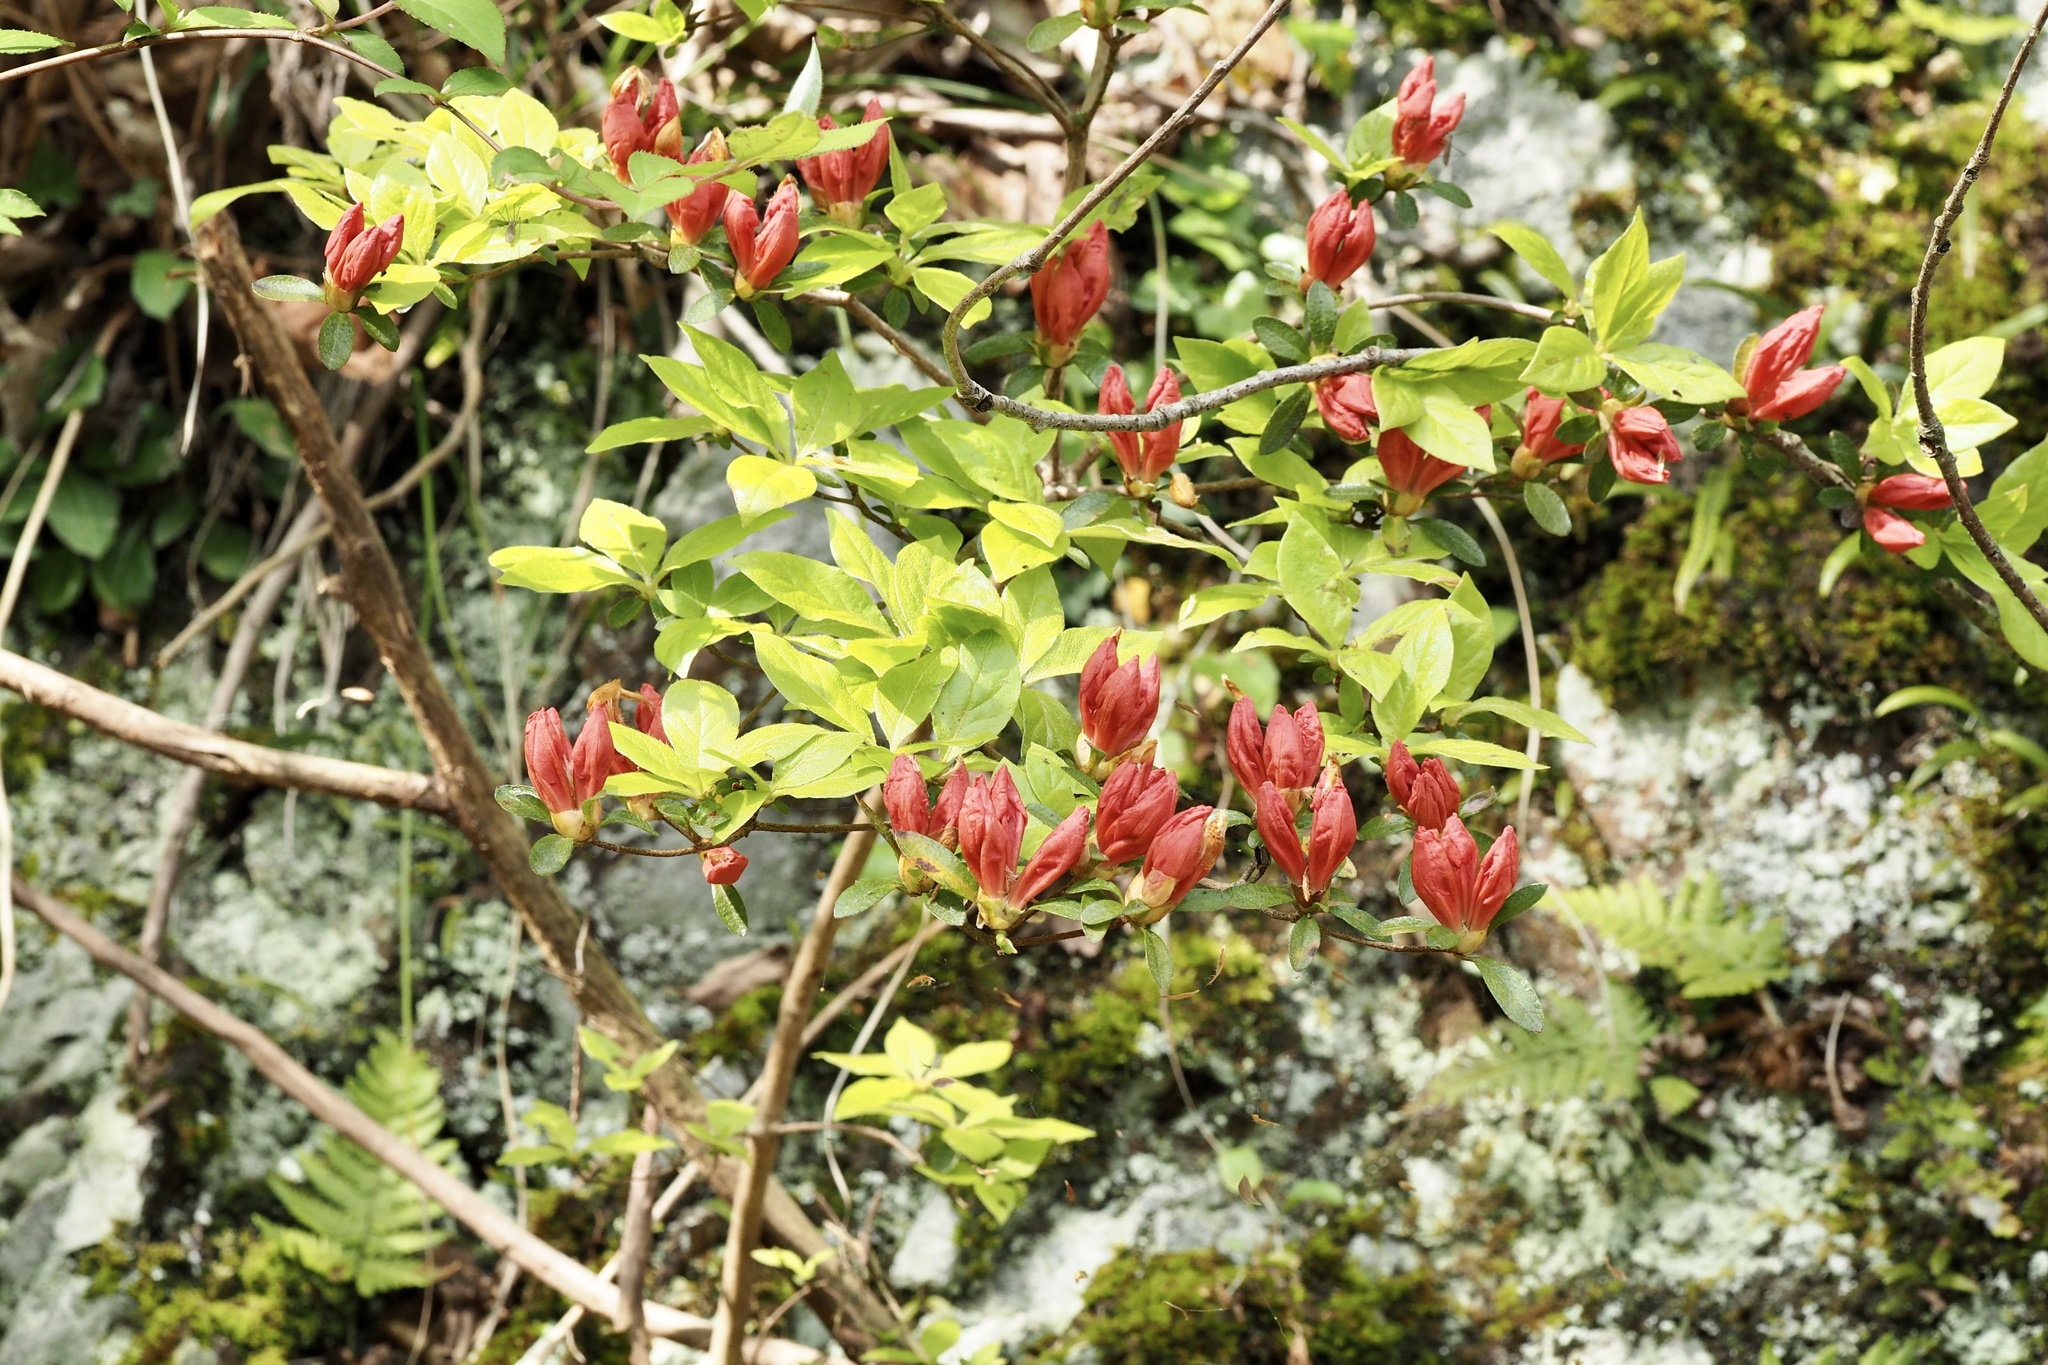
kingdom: Plantae
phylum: Tracheophyta
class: Magnoliopsida
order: Ericales
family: Ericaceae
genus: Rhododendron
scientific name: Rhododendron kaempferi
